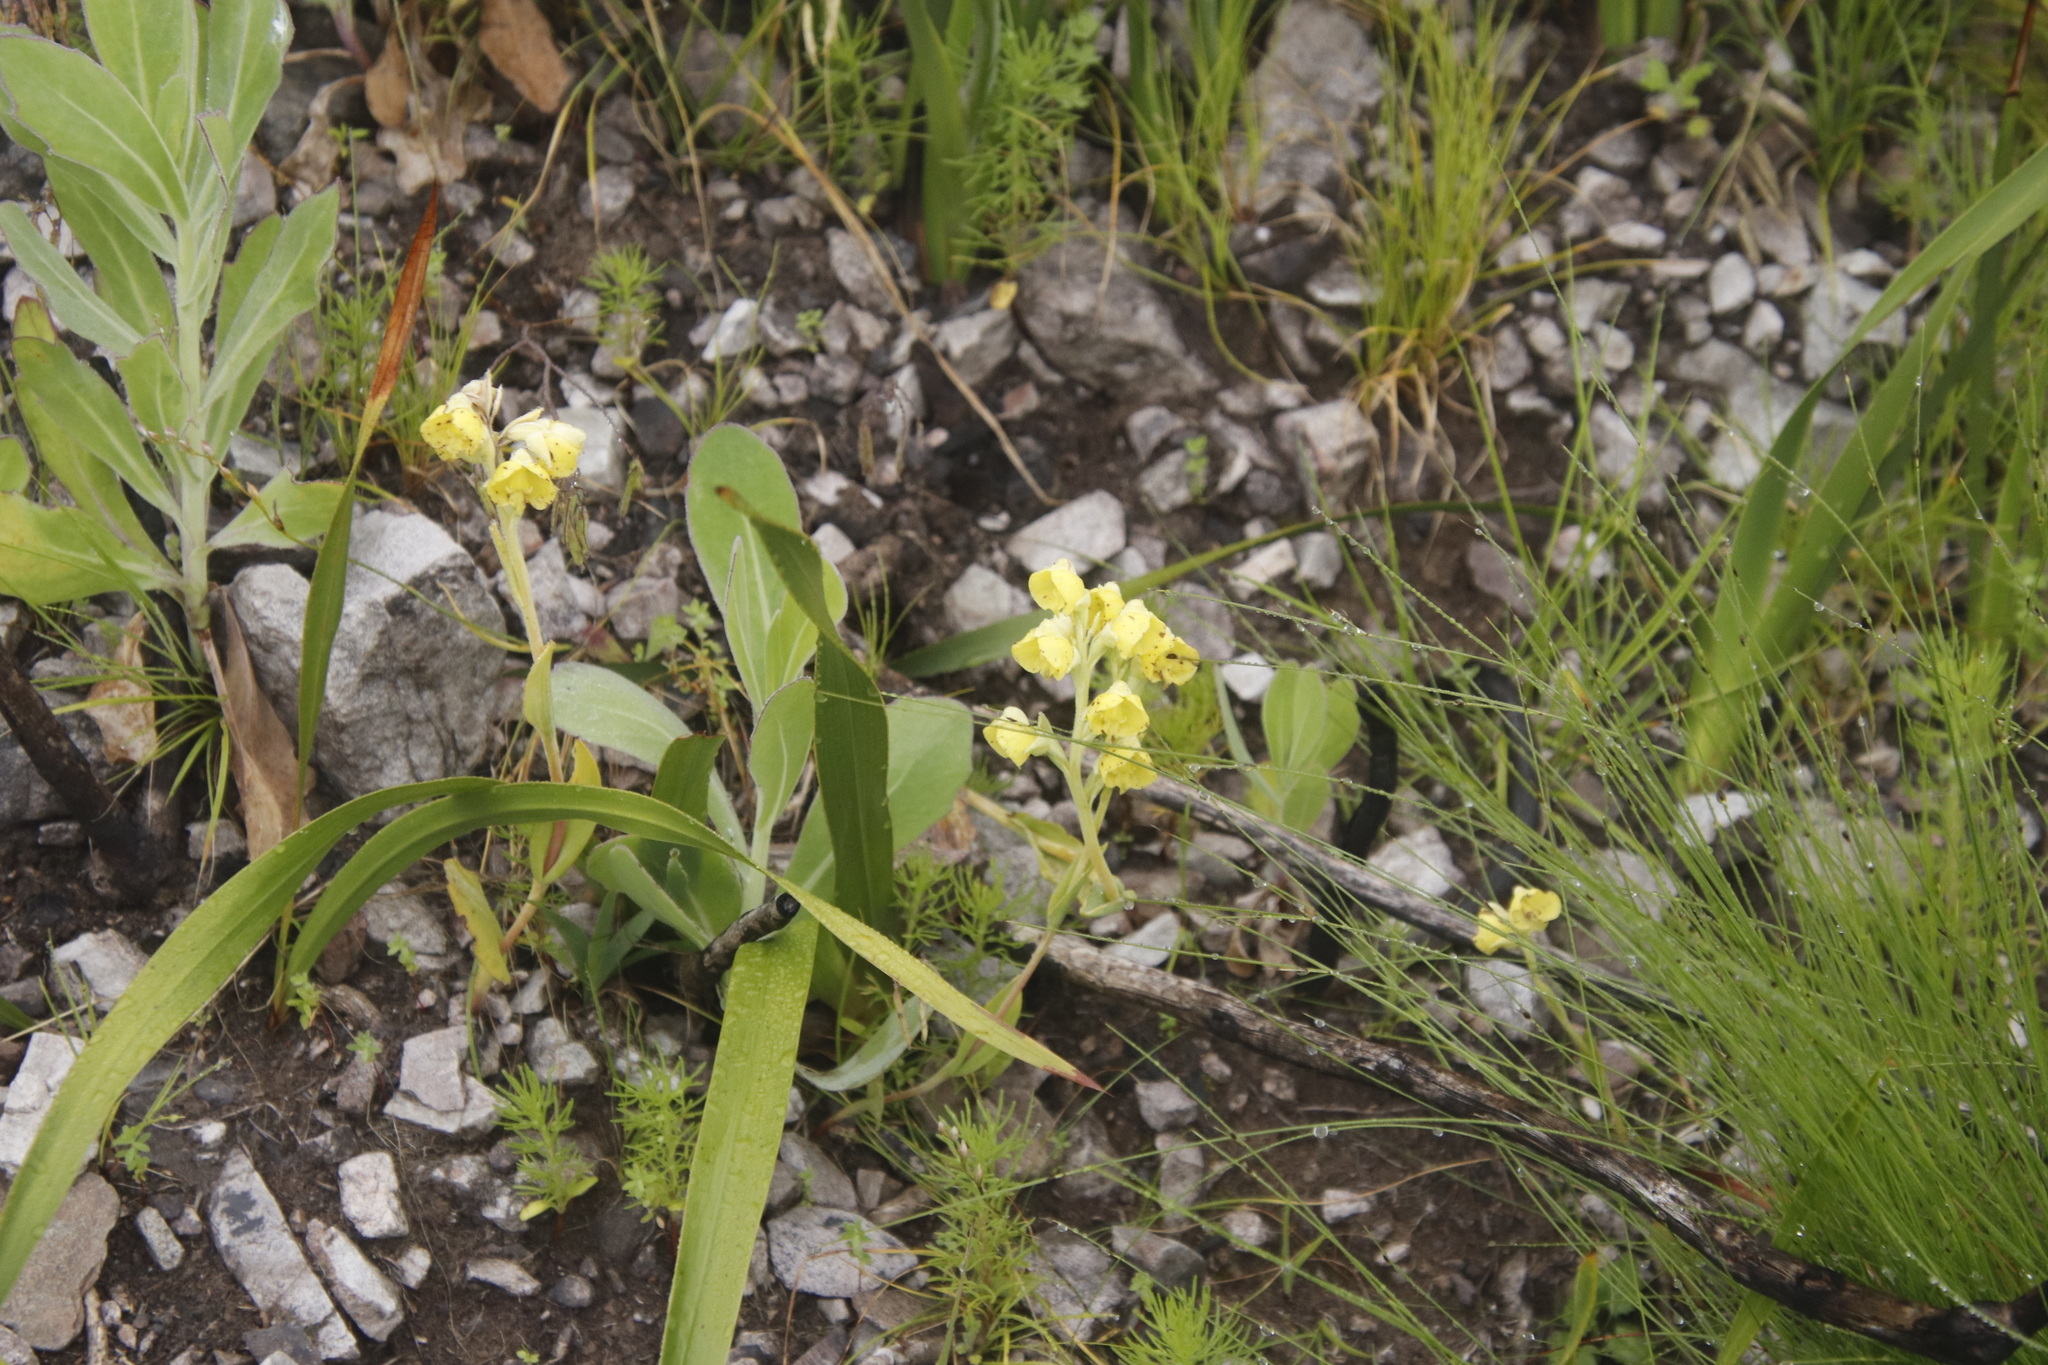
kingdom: Plantae
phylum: Tracheophyta
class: Liliopsida
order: Asparagales
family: Orchidaceae
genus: Pterygodium
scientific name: Pterygodium catholicum
